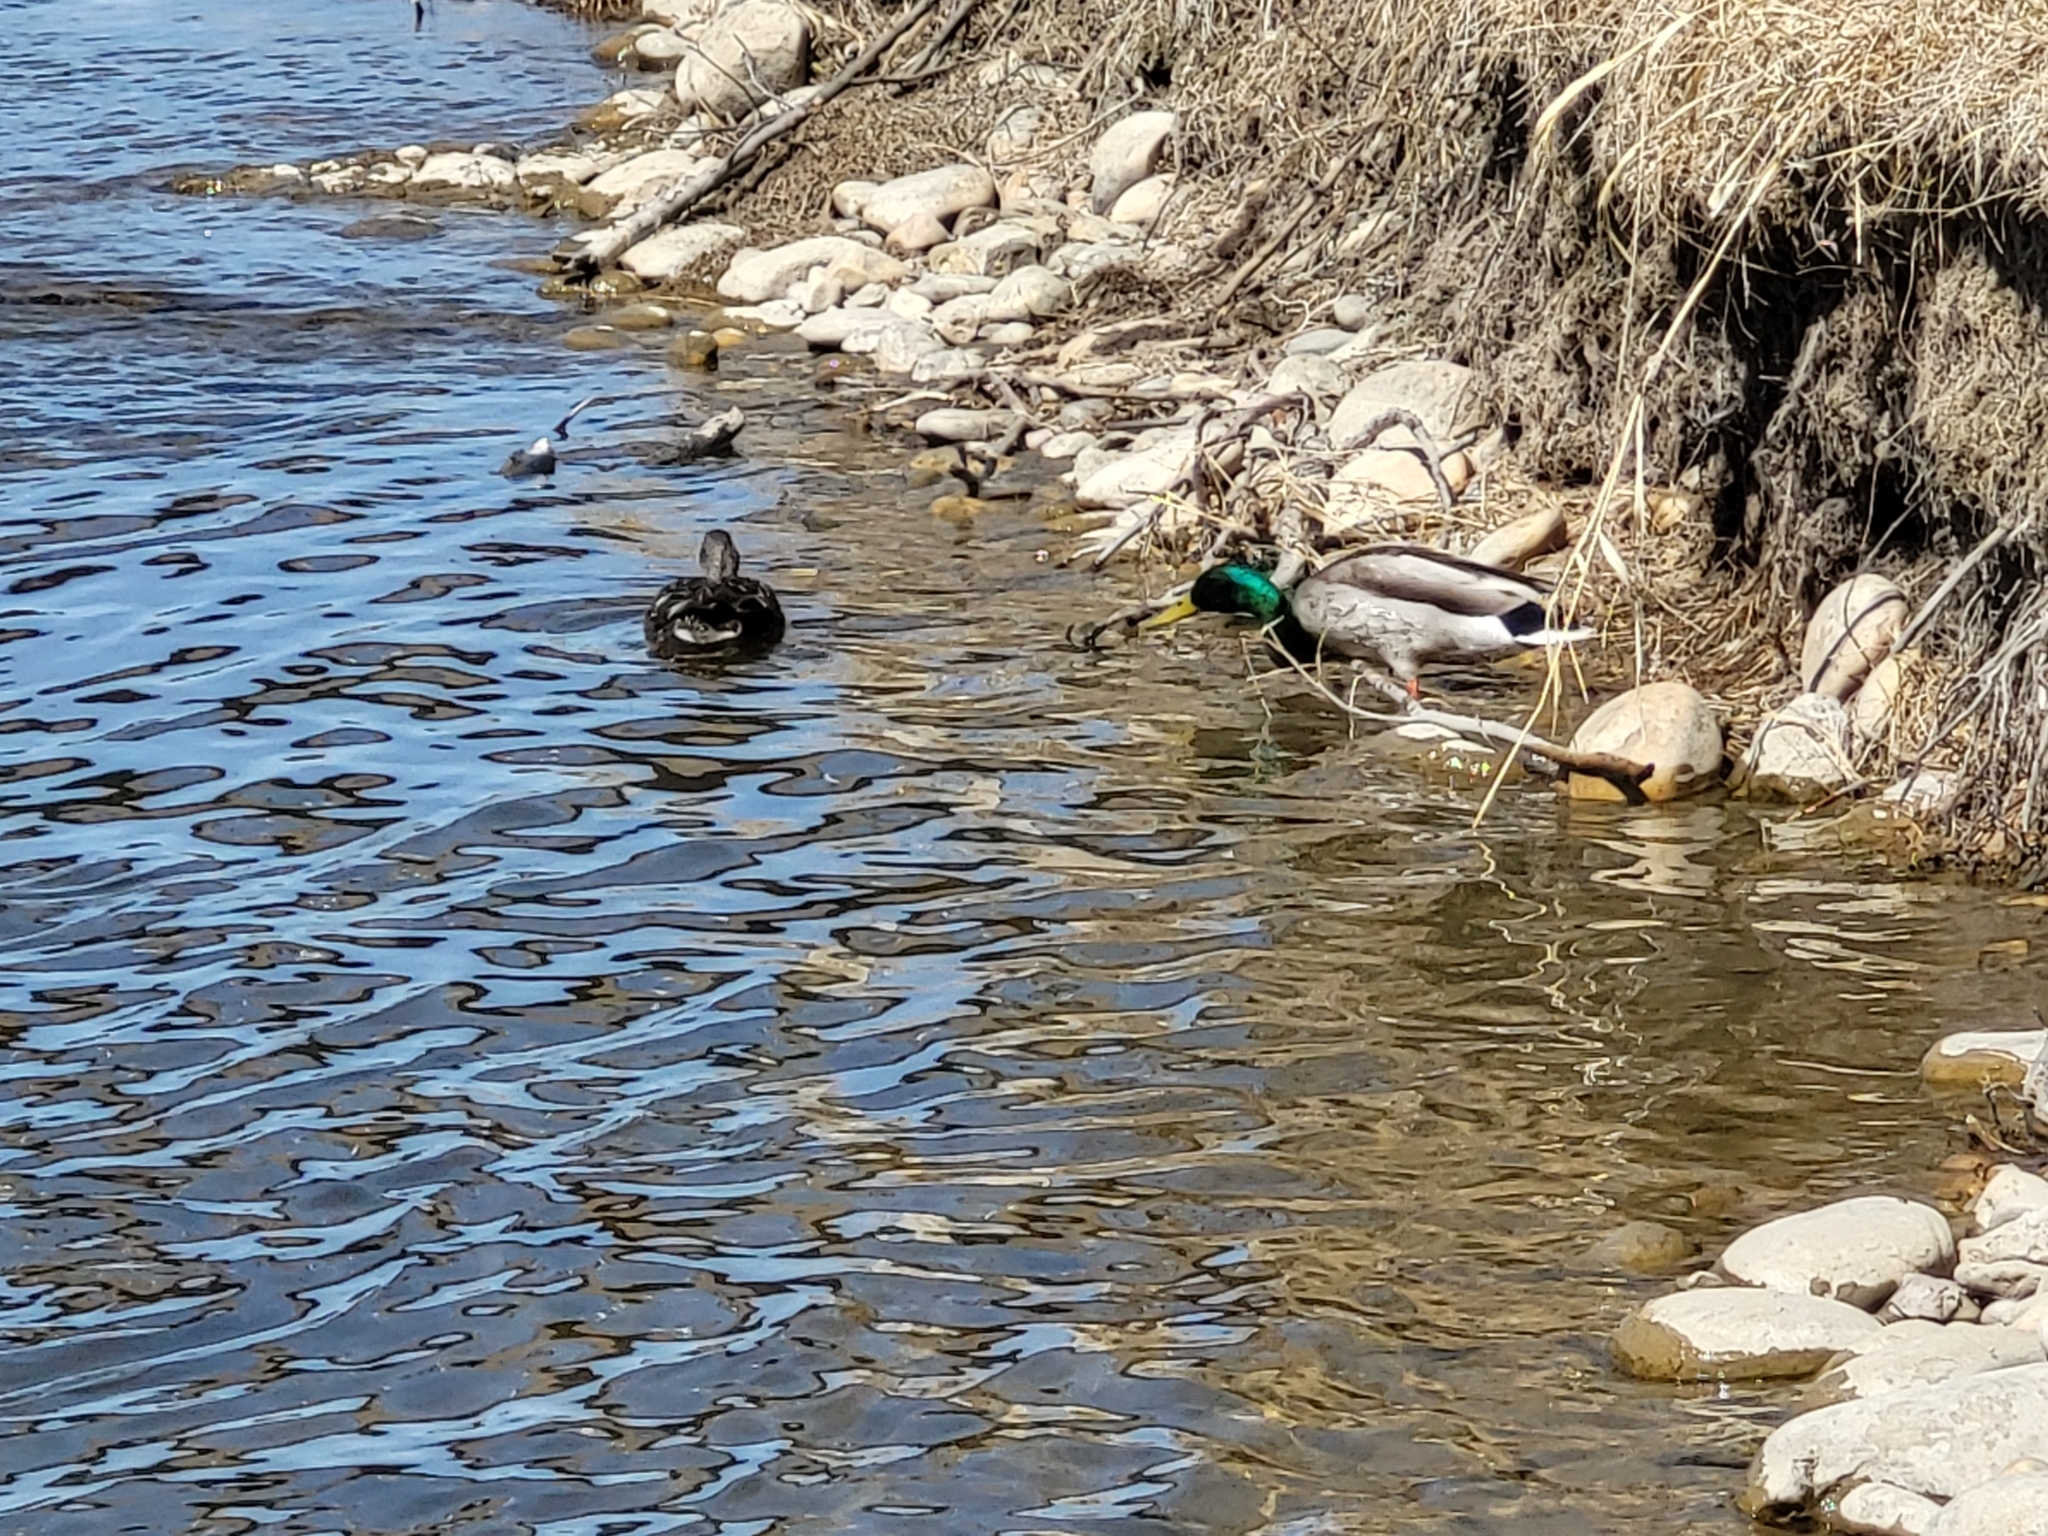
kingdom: Animalia
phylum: Chordata
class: Aves
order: Anseriformes
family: Anatidae
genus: Anas
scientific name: Anas platyrhynchos
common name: Mallard
